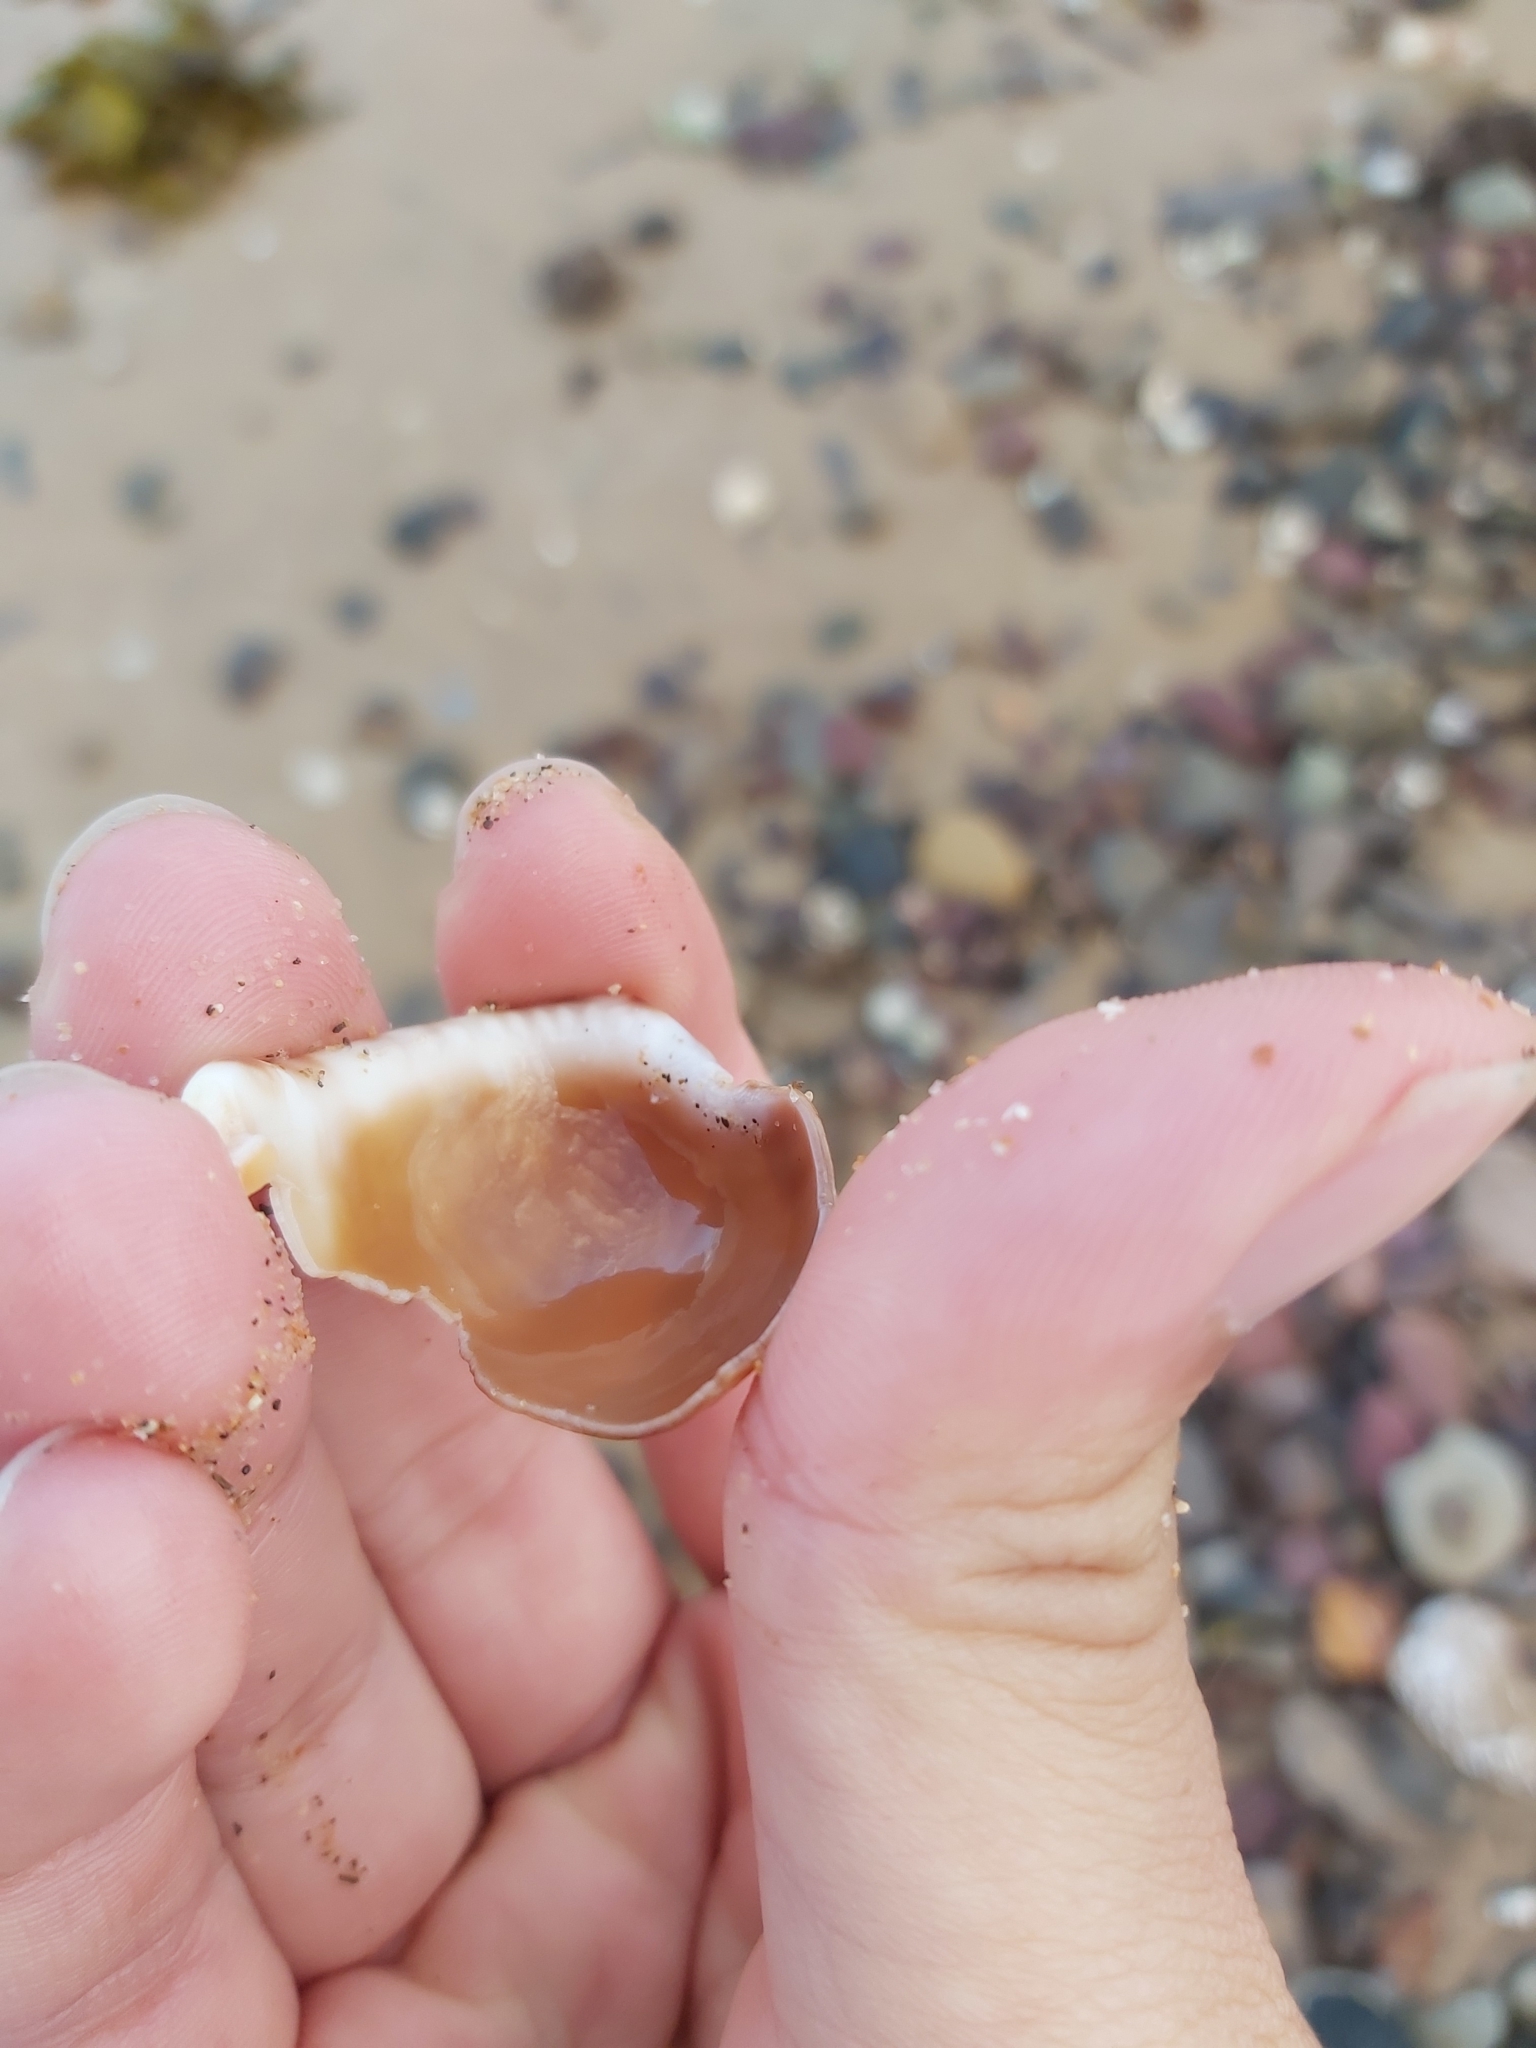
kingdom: Animalia
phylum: Mollusca
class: Gastropoda
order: Littorinimorpha
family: Cassidae
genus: Semicassis
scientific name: Semicassis labiata
